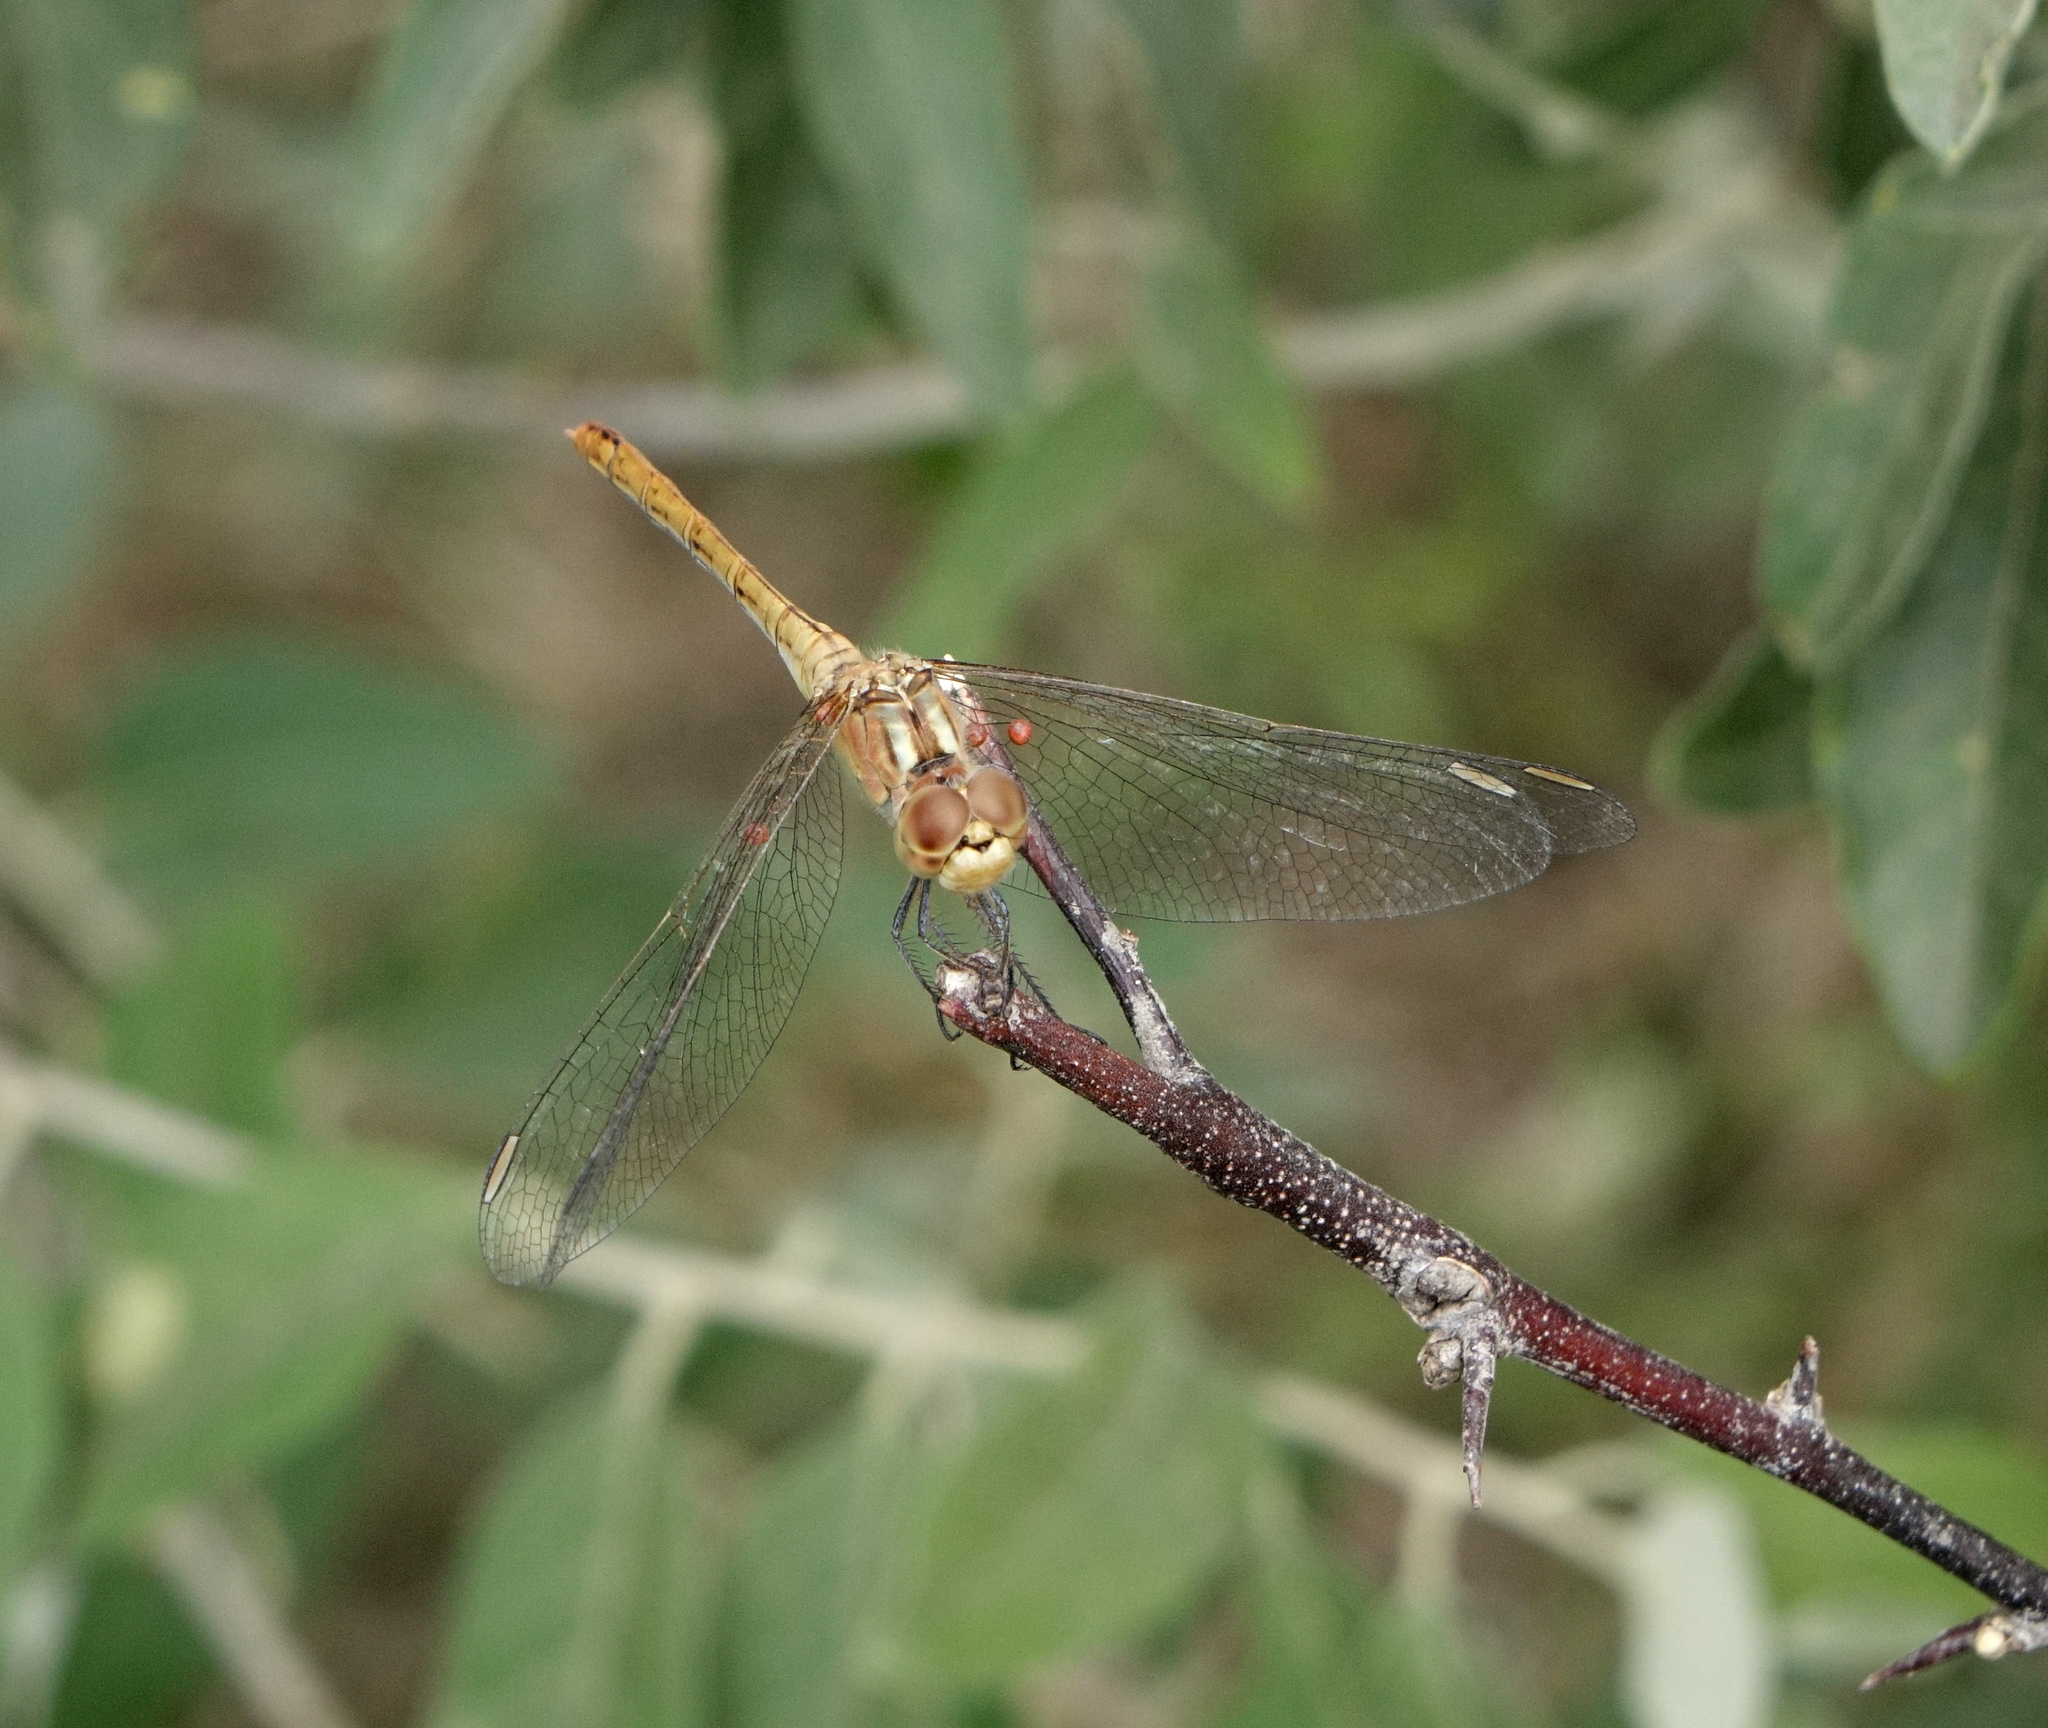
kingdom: Animalia
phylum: Arthropoda
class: Insecta
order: Odonata
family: Libellulidae
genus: Sympetrum
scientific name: Sympetrum meridionale
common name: Southern darter
